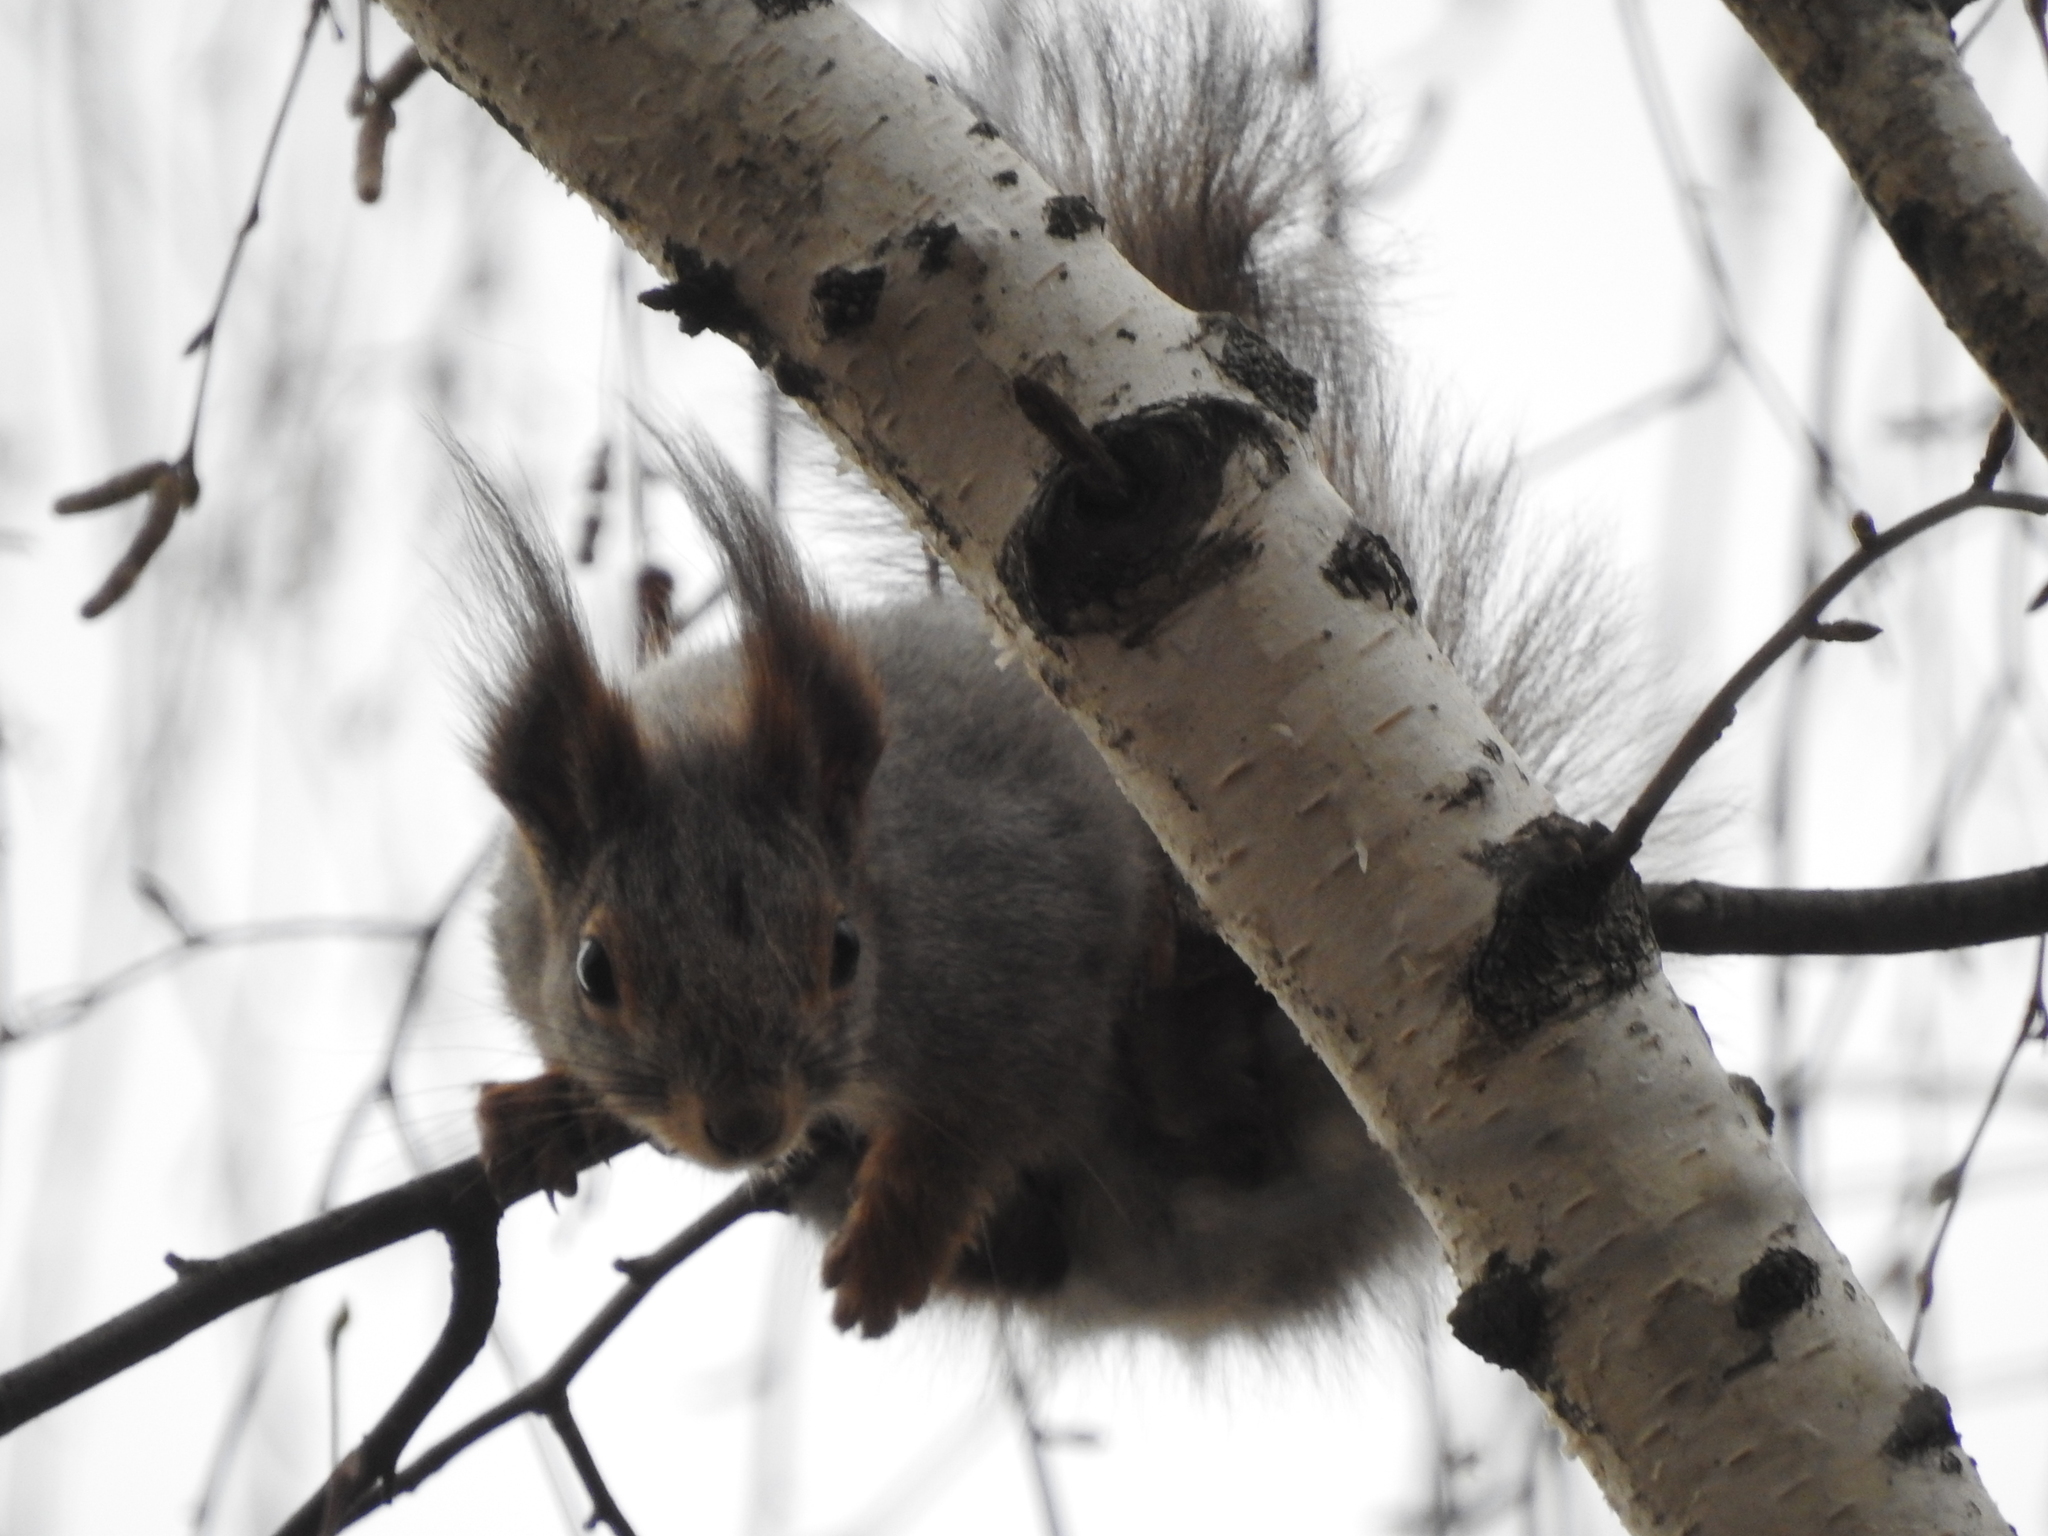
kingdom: Animalia
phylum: Chordata
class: Mammalia
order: Rodentia
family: Sciuridae
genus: Sciurus
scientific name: Sciurus vulgaris
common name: Eurasian red squirrel
